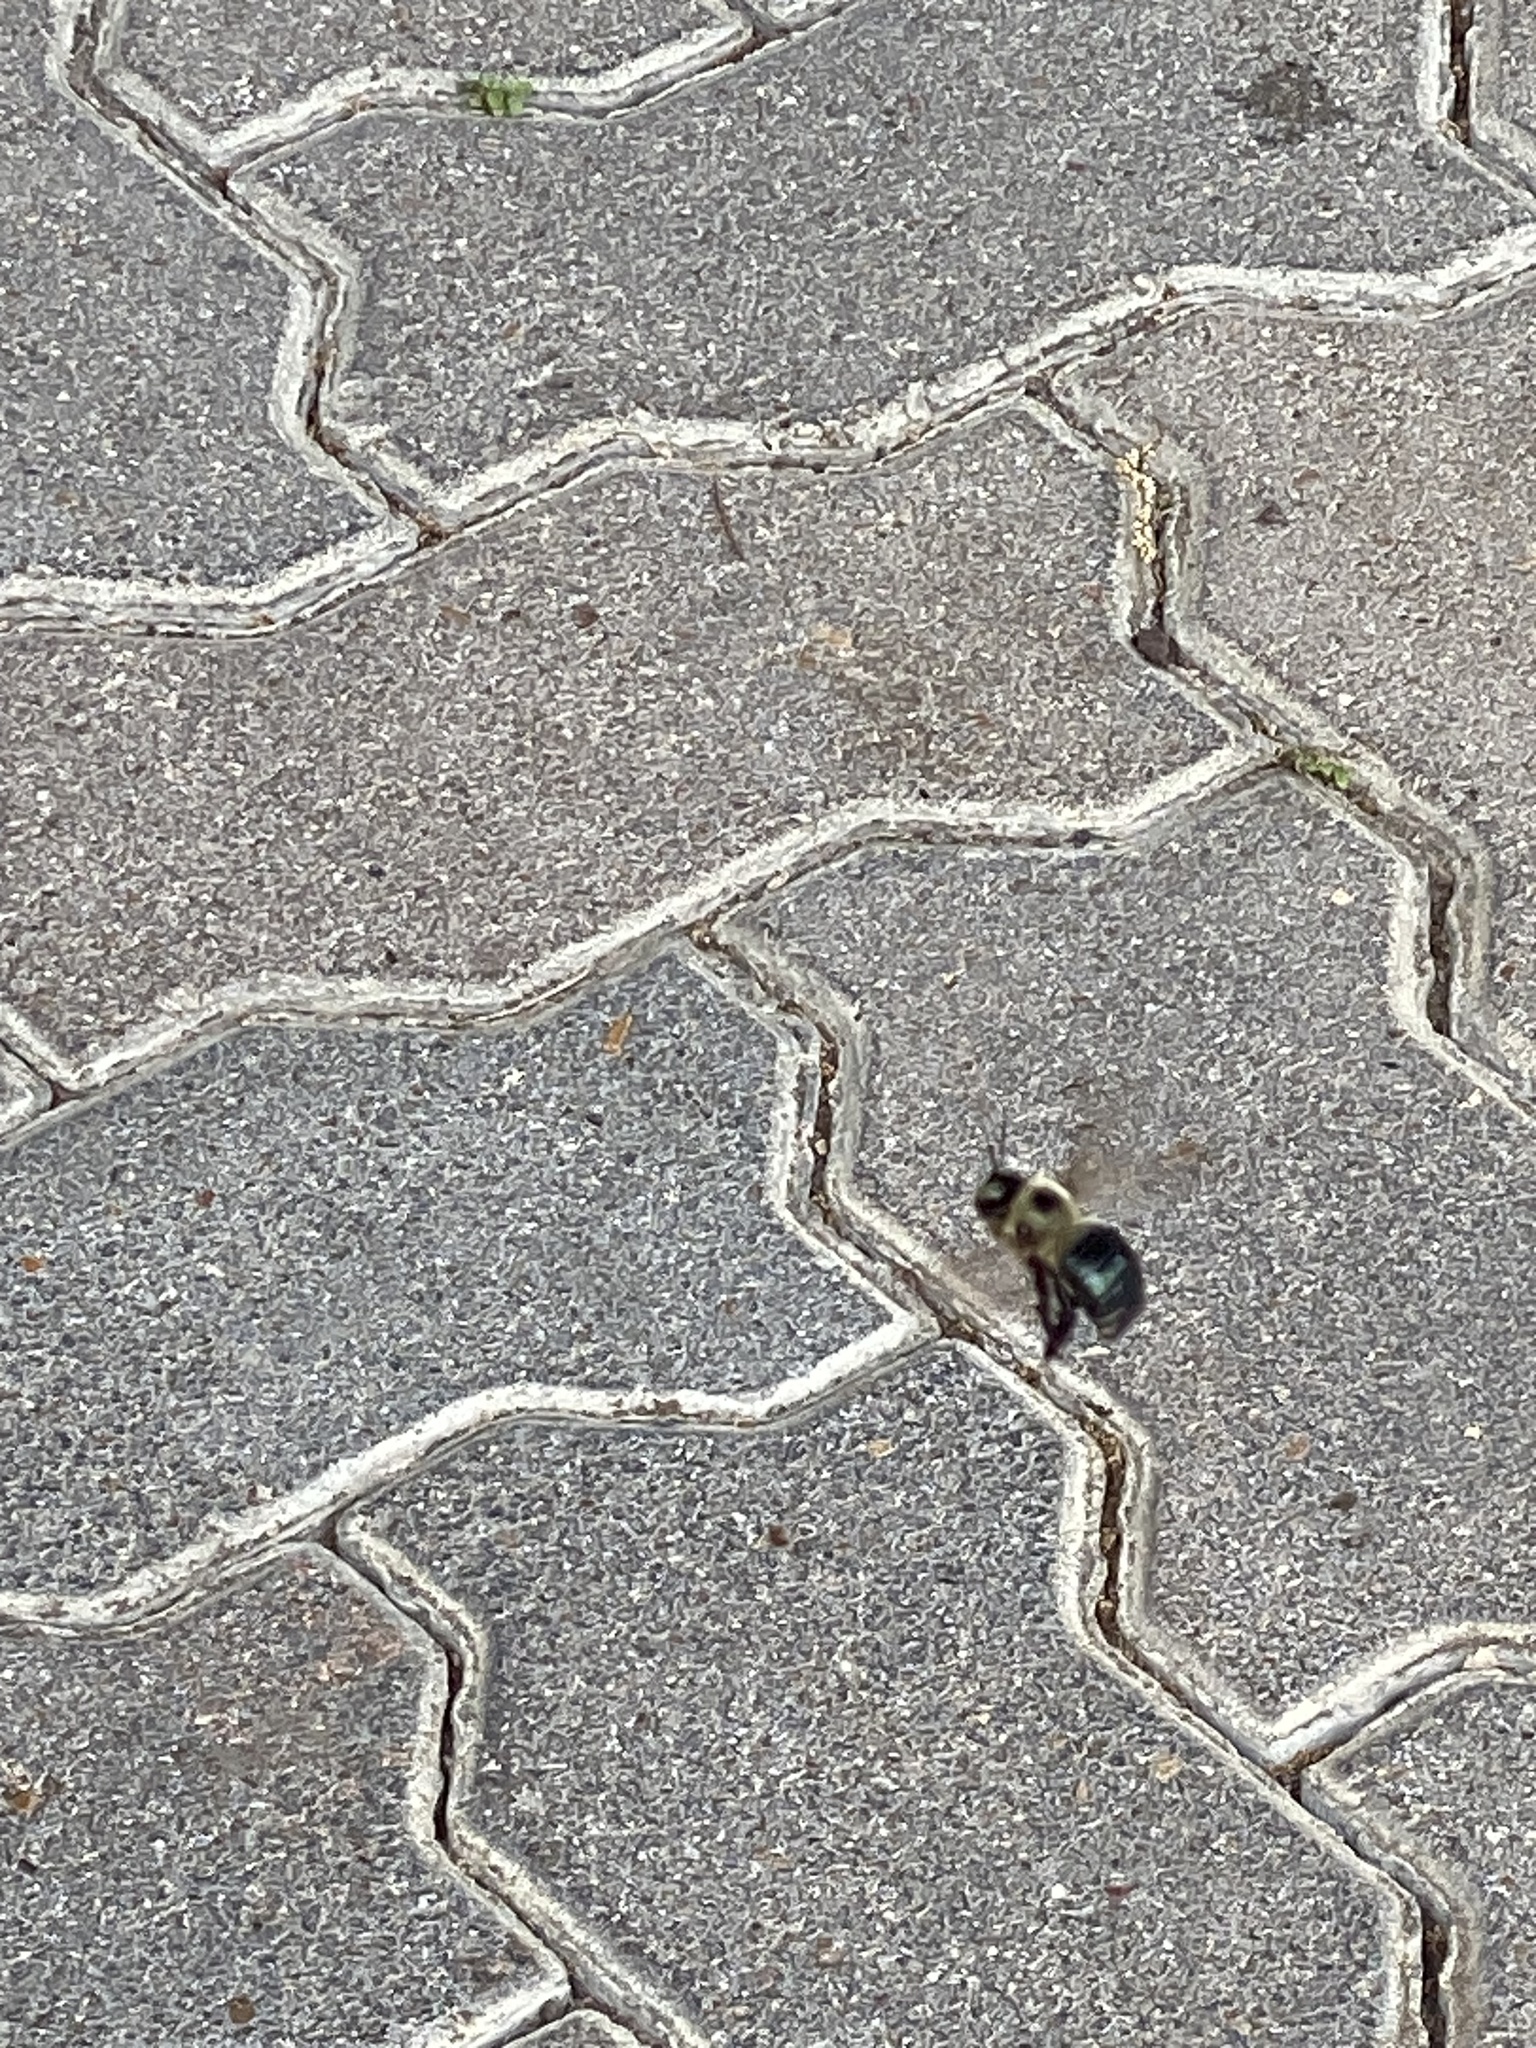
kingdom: Animalia
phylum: Arthropoda
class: Insecta
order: Hymenoptera
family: Apidae
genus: Xylocopa
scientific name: Xylocopa virginica
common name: Carpenter bee
